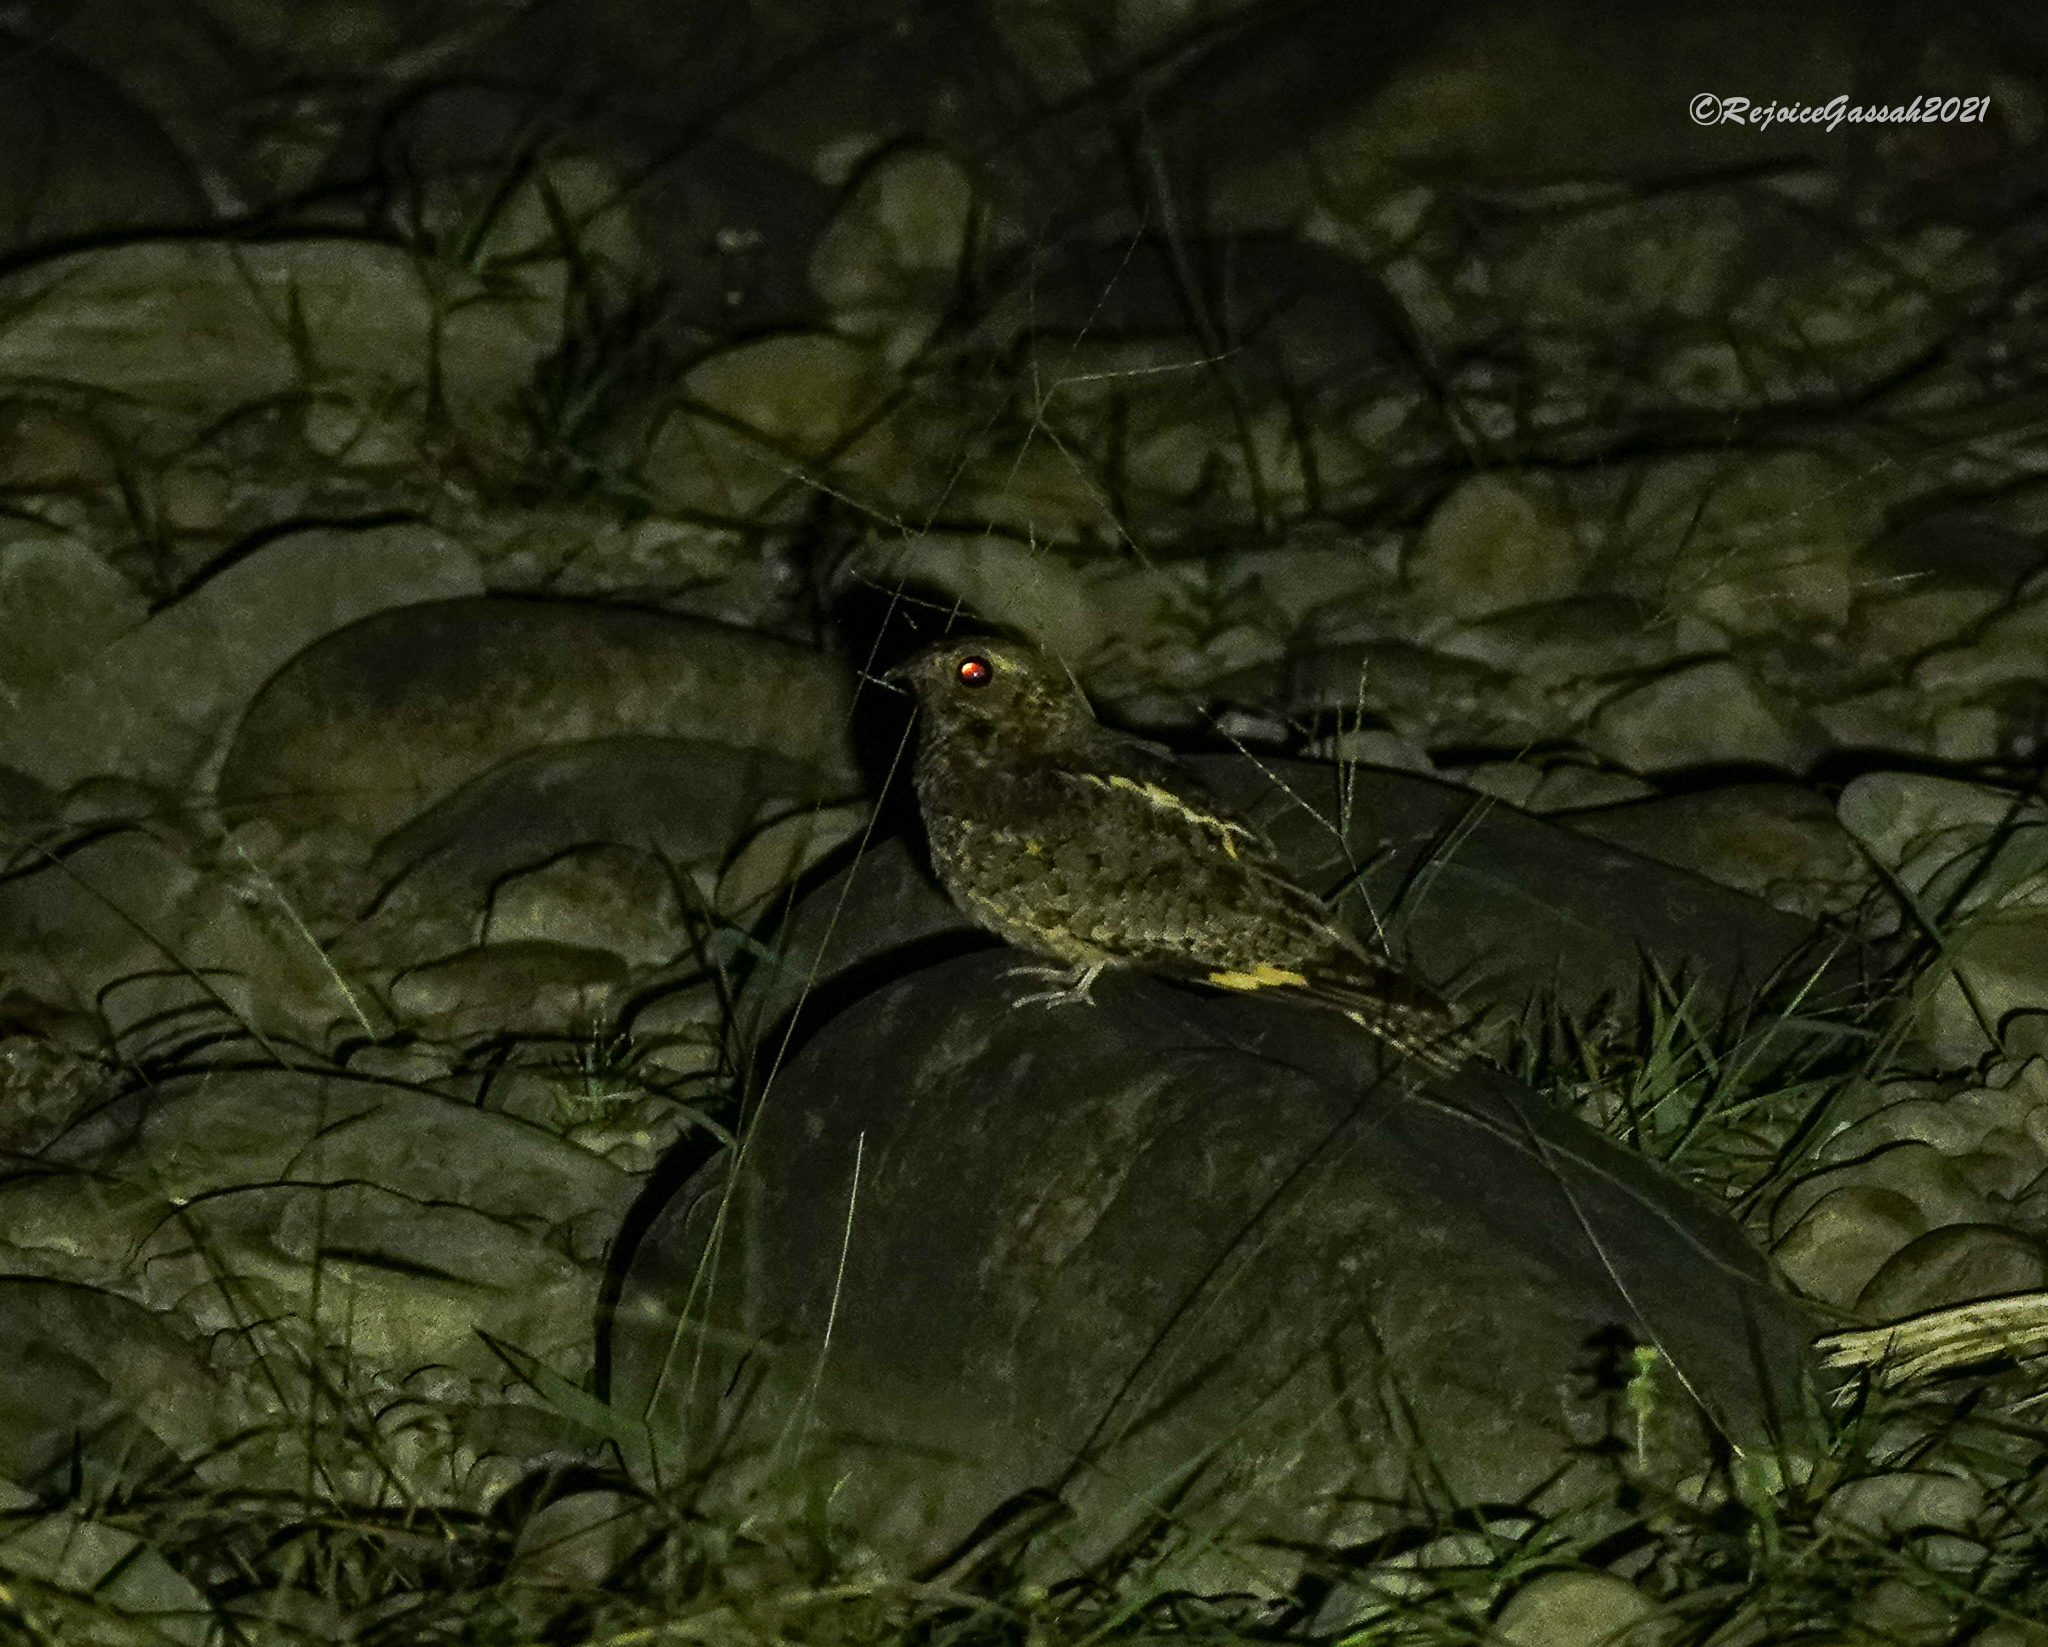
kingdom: Animalia
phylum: Chordata
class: Aves
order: Caprimulgiformes
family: Caprimulgidae
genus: Caprimulgus
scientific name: Caprimulgus jotaka
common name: Grey nightjar
